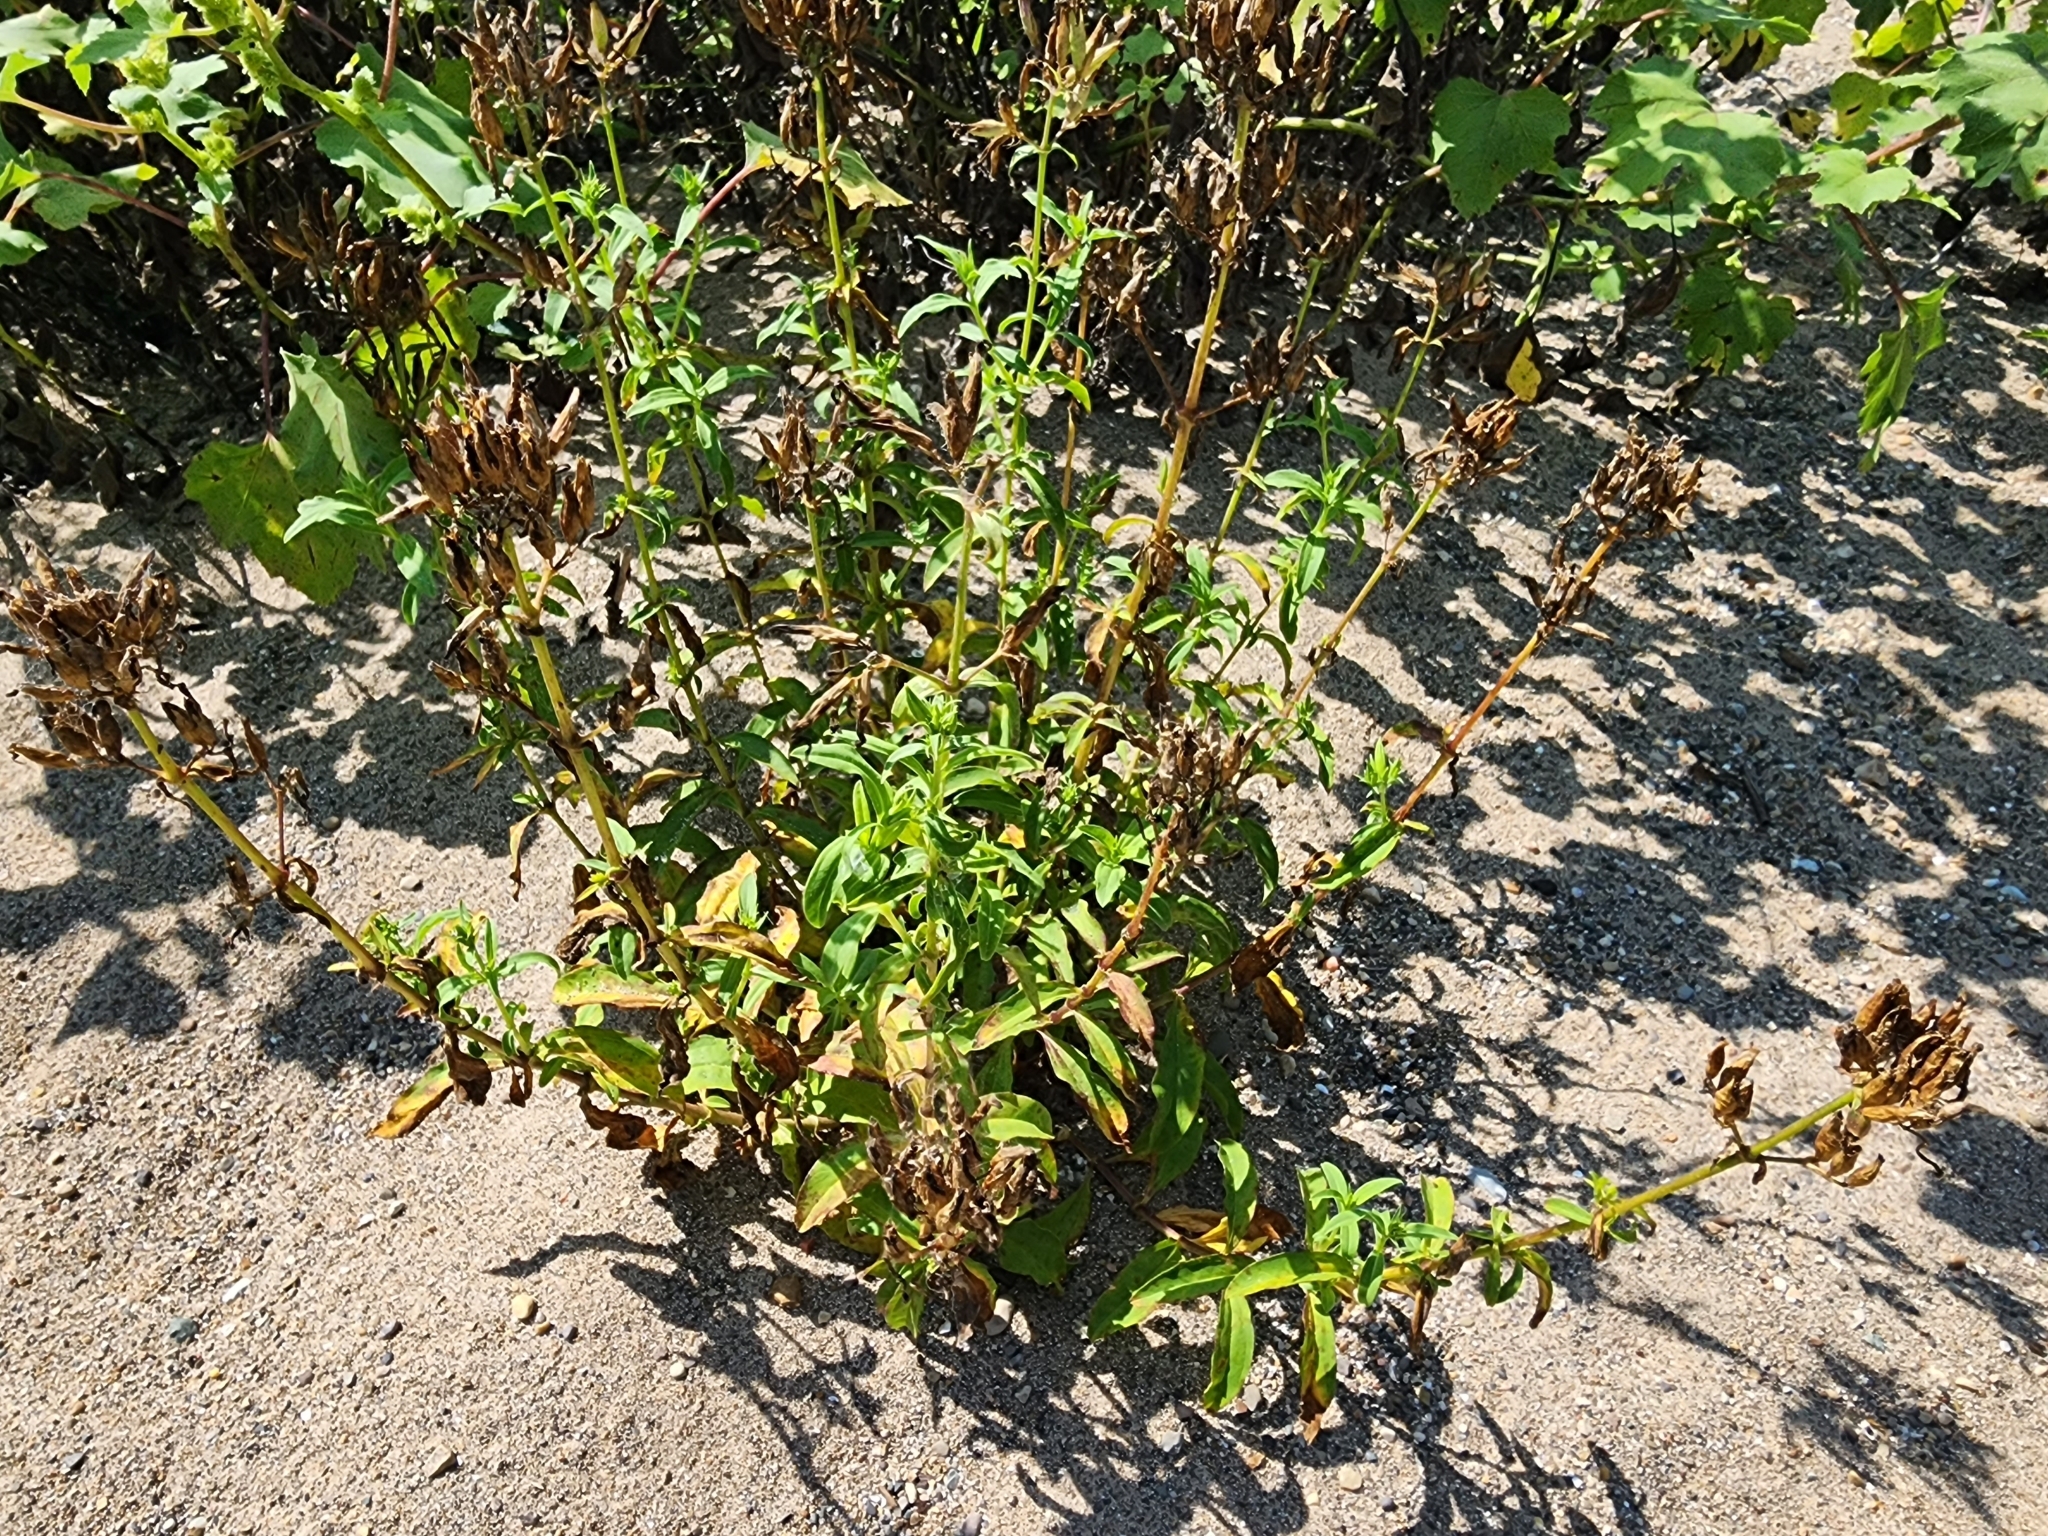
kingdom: Plantae
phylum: Tracheophyta
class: Magnoliopsida
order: Caryophyllales
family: Caryophyllaceae
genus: Saponaria
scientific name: Saponaria officinalis
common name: Soapwort
